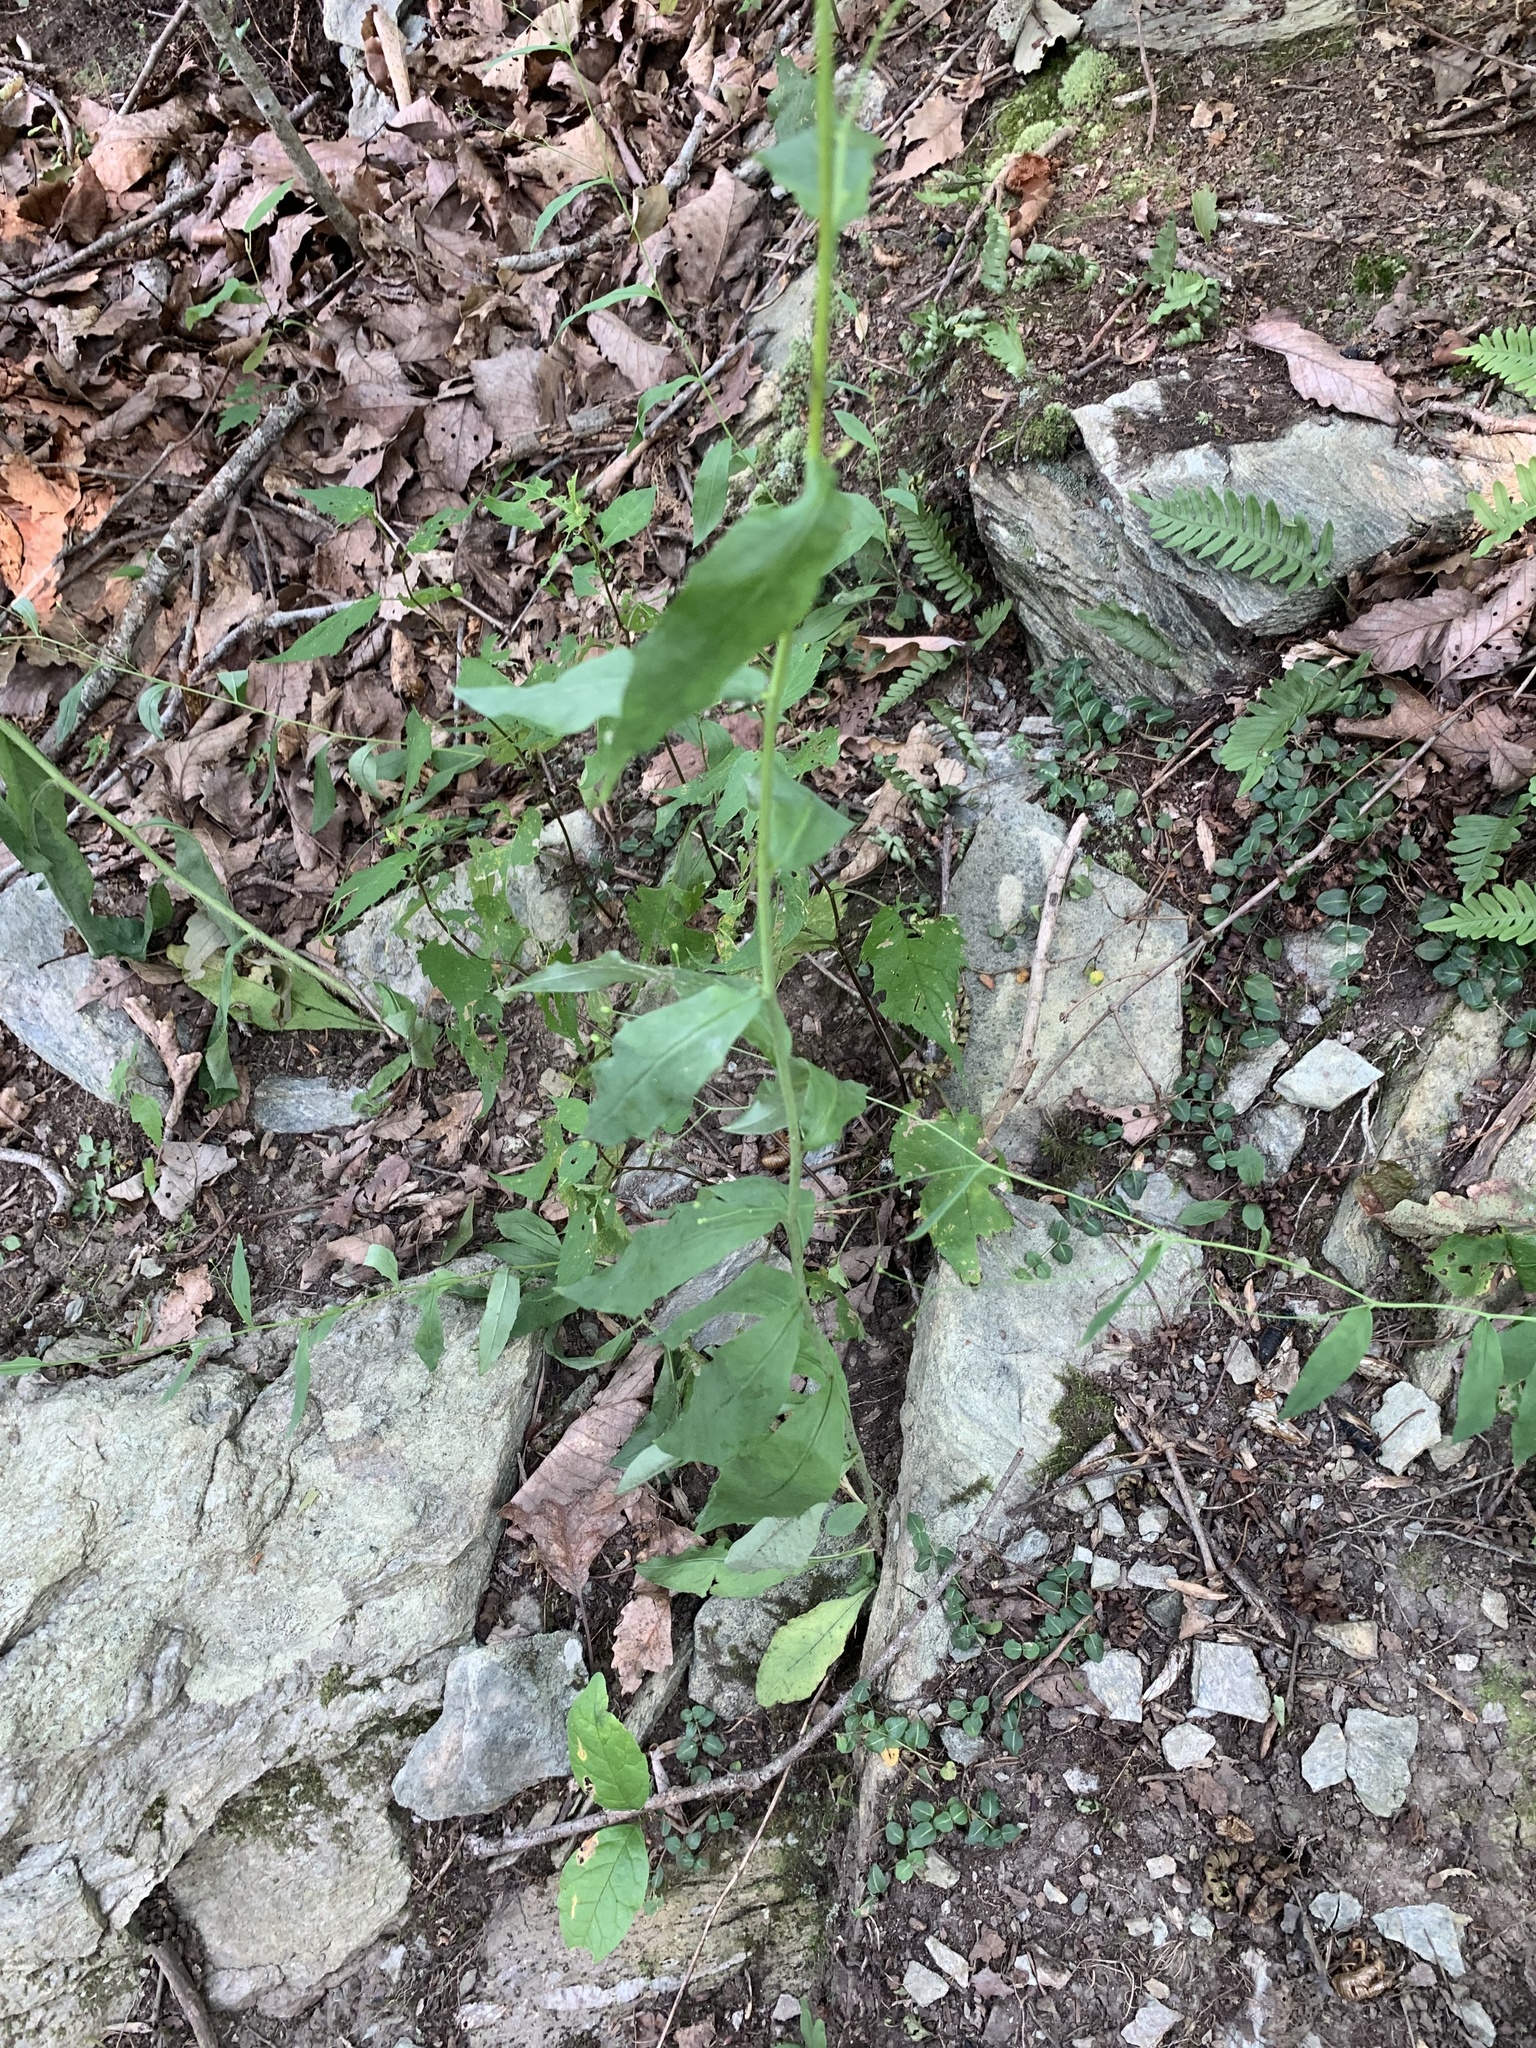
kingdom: Plantae
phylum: Tracheophyta
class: Magnoliopsida
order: Asterales
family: Asteraceae
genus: Hieracium
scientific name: Hieracium paniculatum
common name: Allegheny hawkweed
